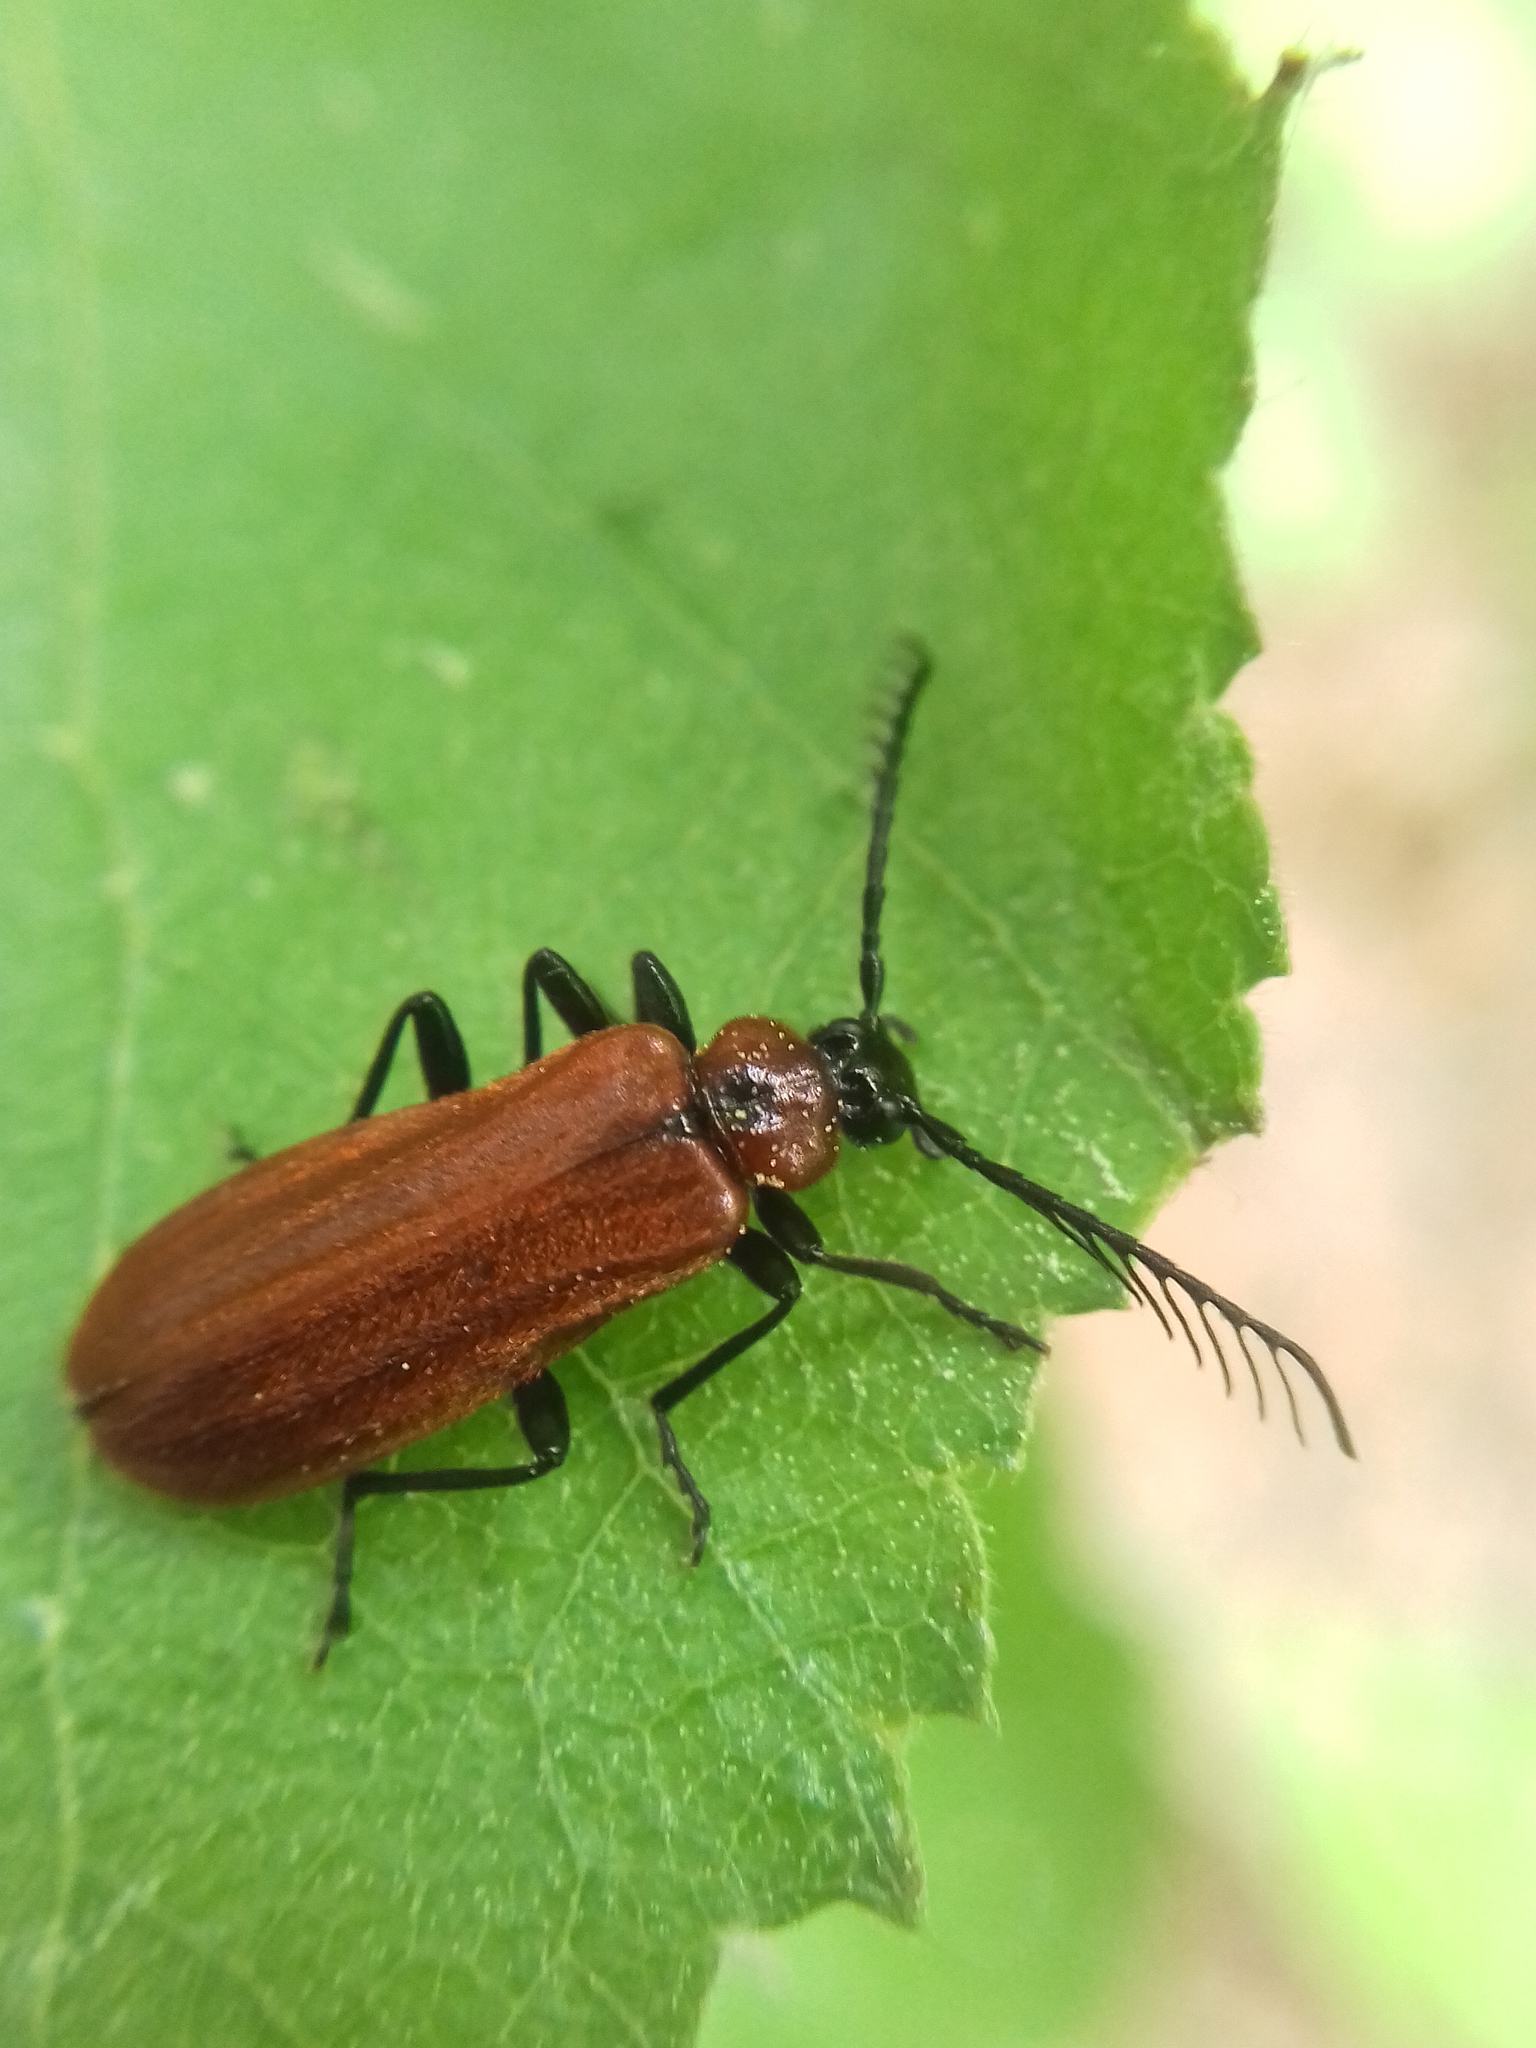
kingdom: Animalia
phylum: Arthropoda
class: Insecta
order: Coleoptera
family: Pyrochroidae
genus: Schizotus
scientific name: Schizotus pectinicornis
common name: Scarce cardinal beetle
